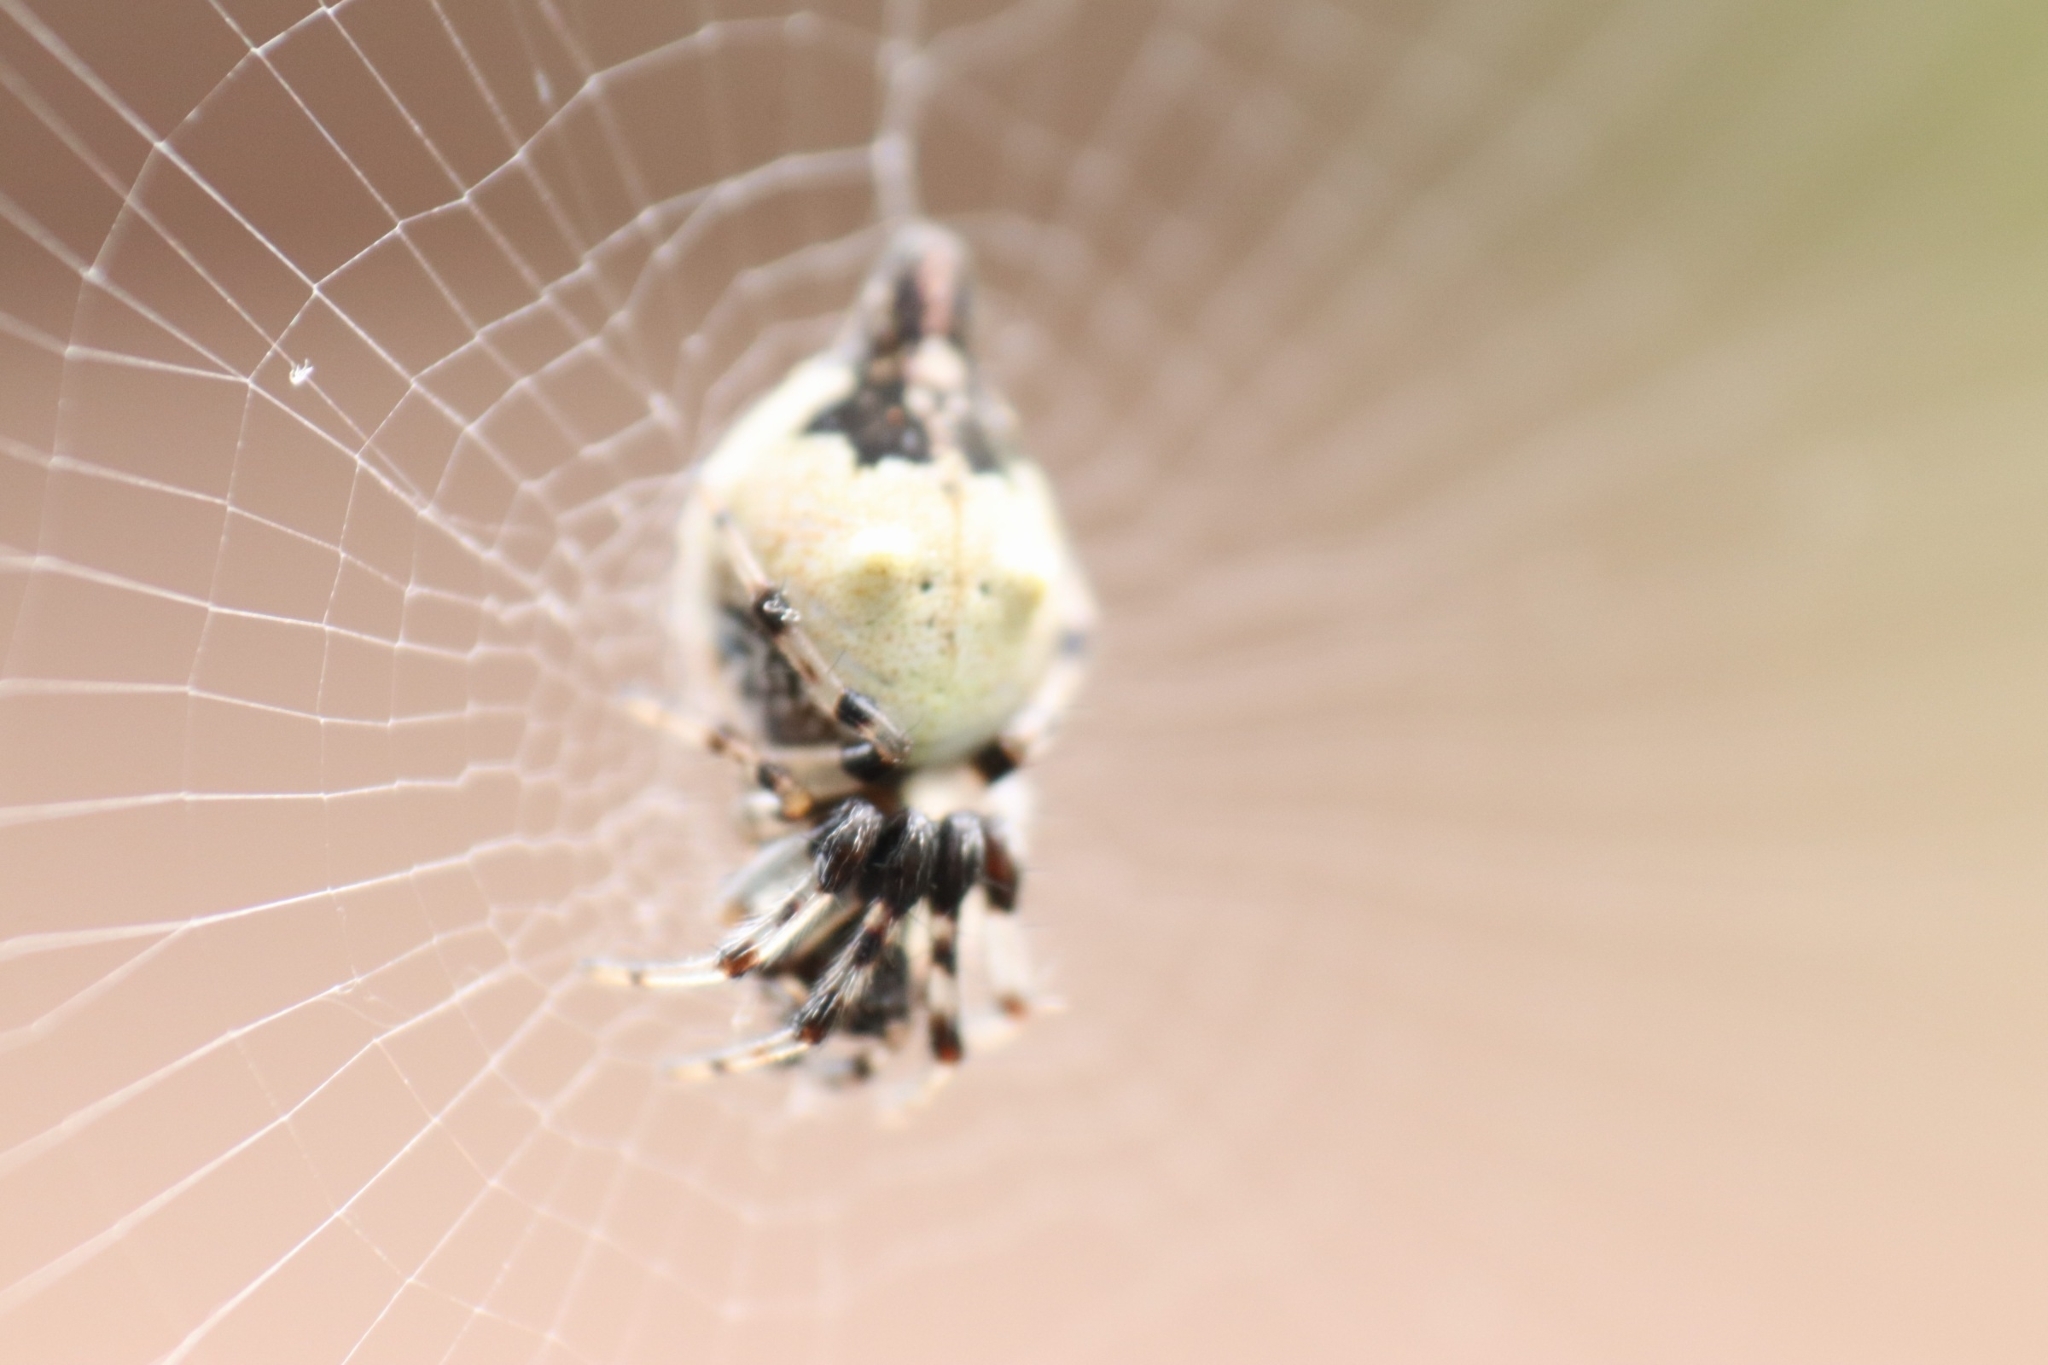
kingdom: Animalia
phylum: Arthropoda
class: Arachnida
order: Araneae
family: Araneidae
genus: Cyclosa
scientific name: Cyclosa turbinata
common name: Orb weavers
